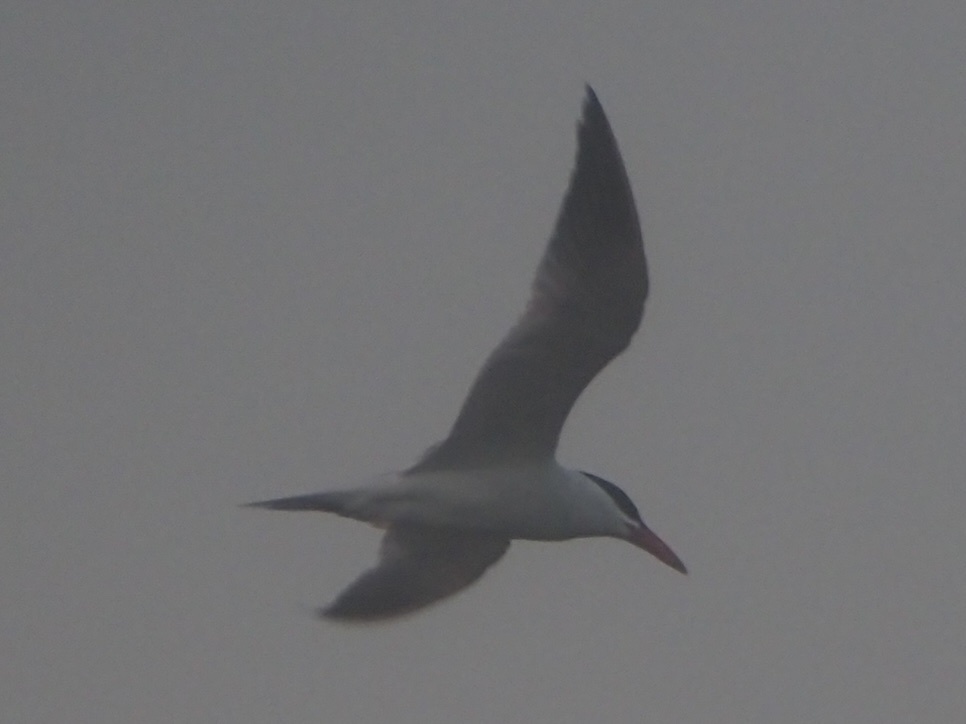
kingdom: Animalia
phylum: Chordata
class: Aves
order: Charadriiformes
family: Laridae
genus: Hydroprogne
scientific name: Hydroprogne caspia
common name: Caspian tern
